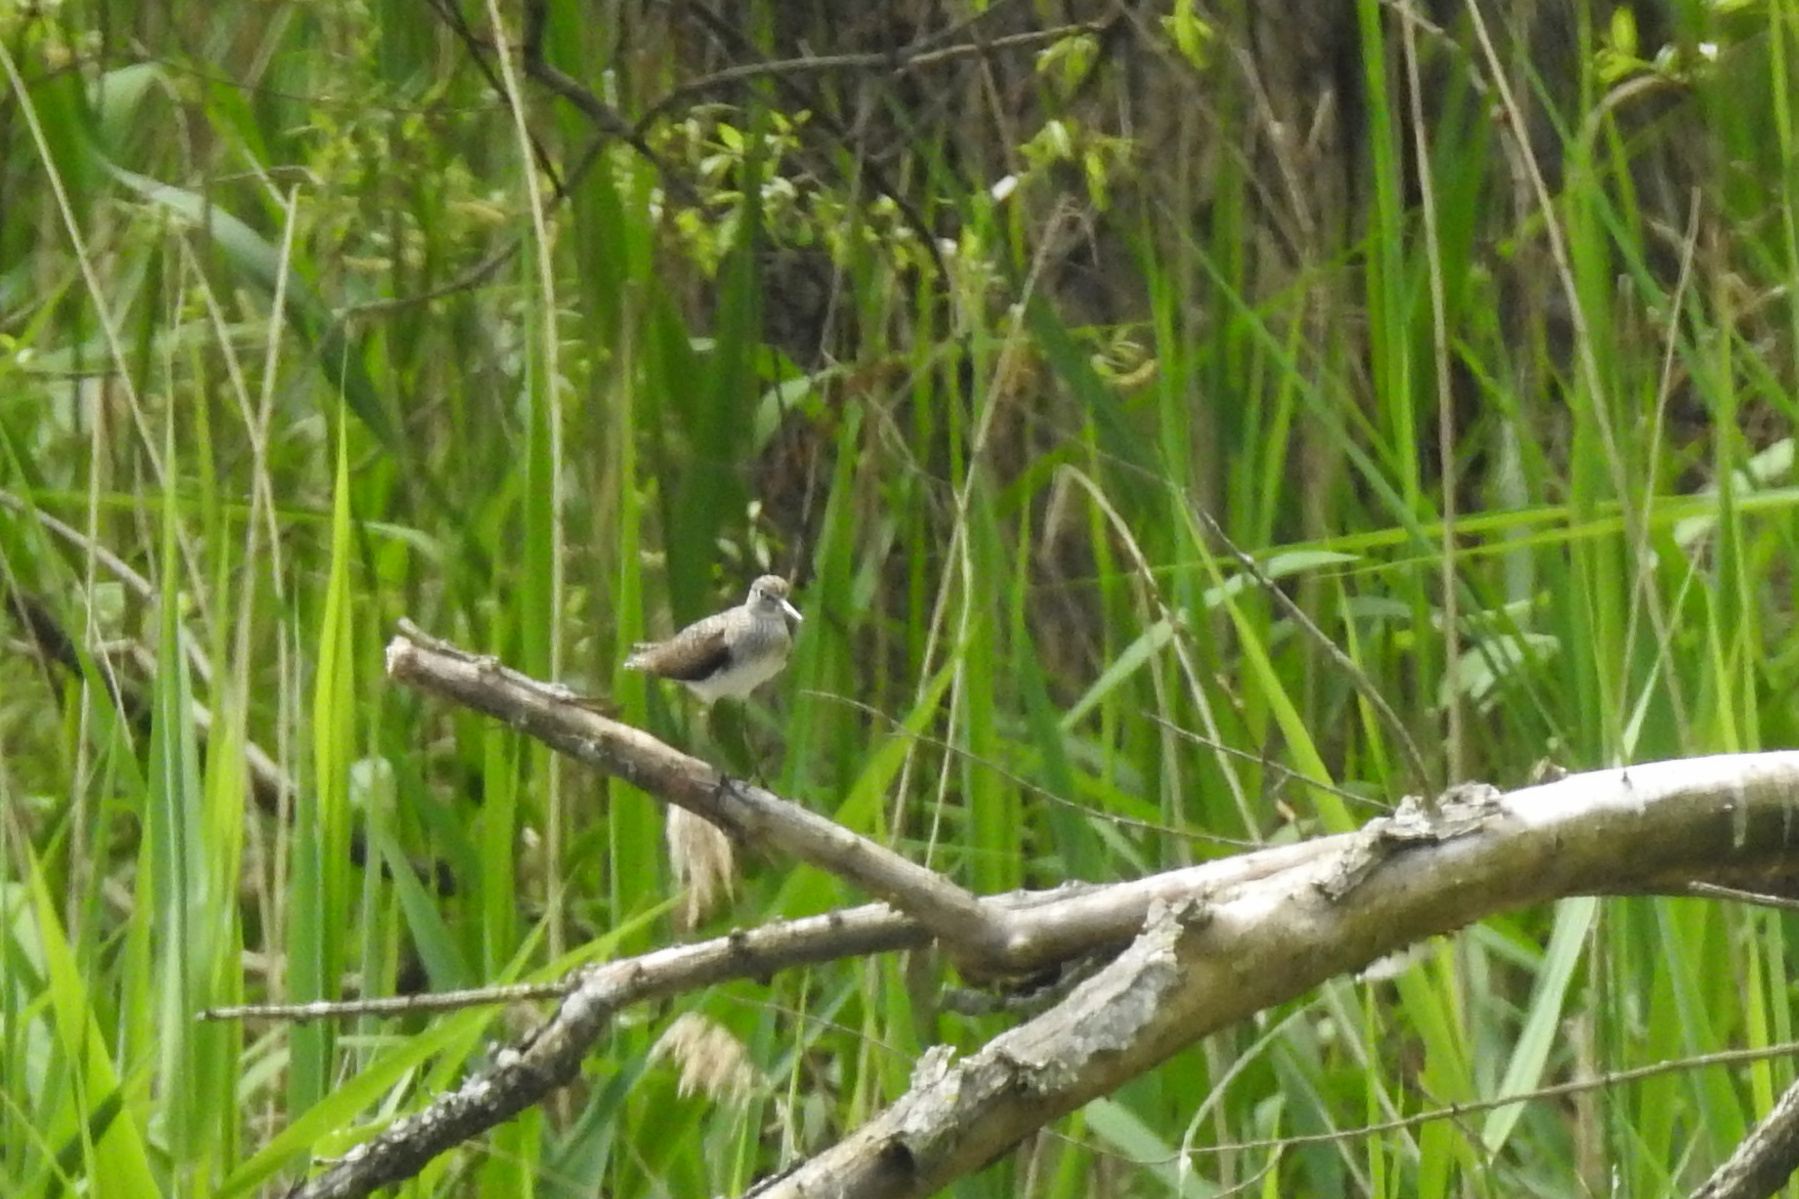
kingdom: Animalia
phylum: Chordata
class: Aves
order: Charadriiformes
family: Scolopacidae
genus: Tringa
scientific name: Tringa solitaria
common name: Solitary sandpiper
